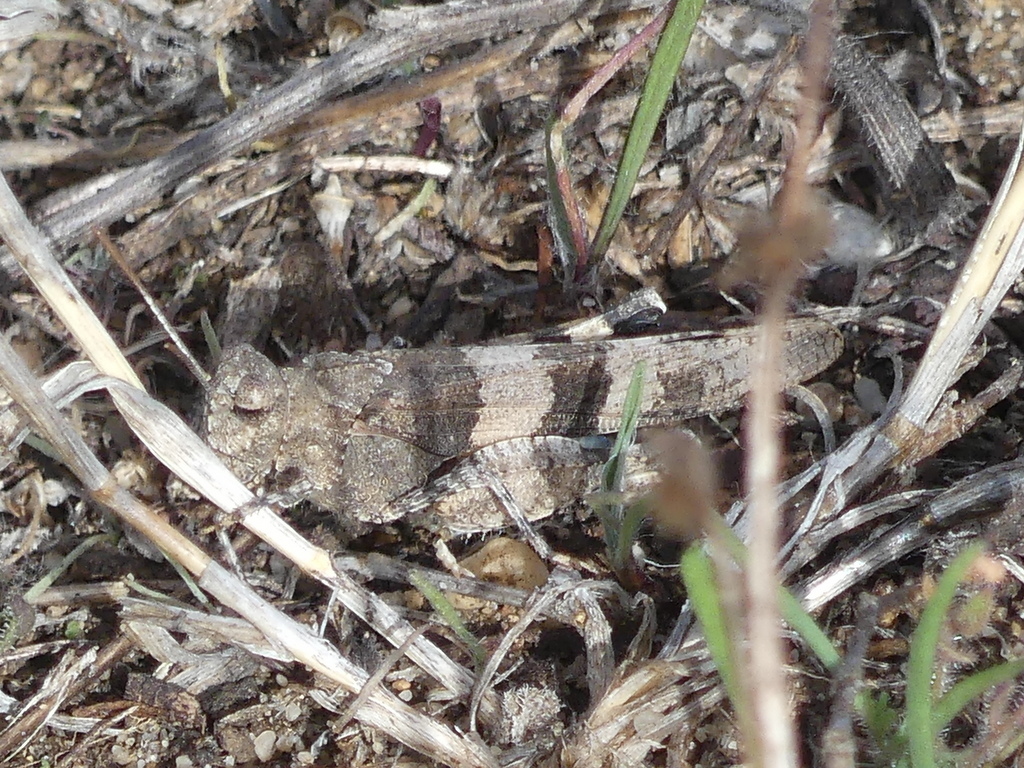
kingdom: Animalia
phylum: Arthropoda
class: Insecta
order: Orthoptera
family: Acrididae
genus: Oedipoda
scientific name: Oedipoda caerulescens
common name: Blue-winged grasshopper
